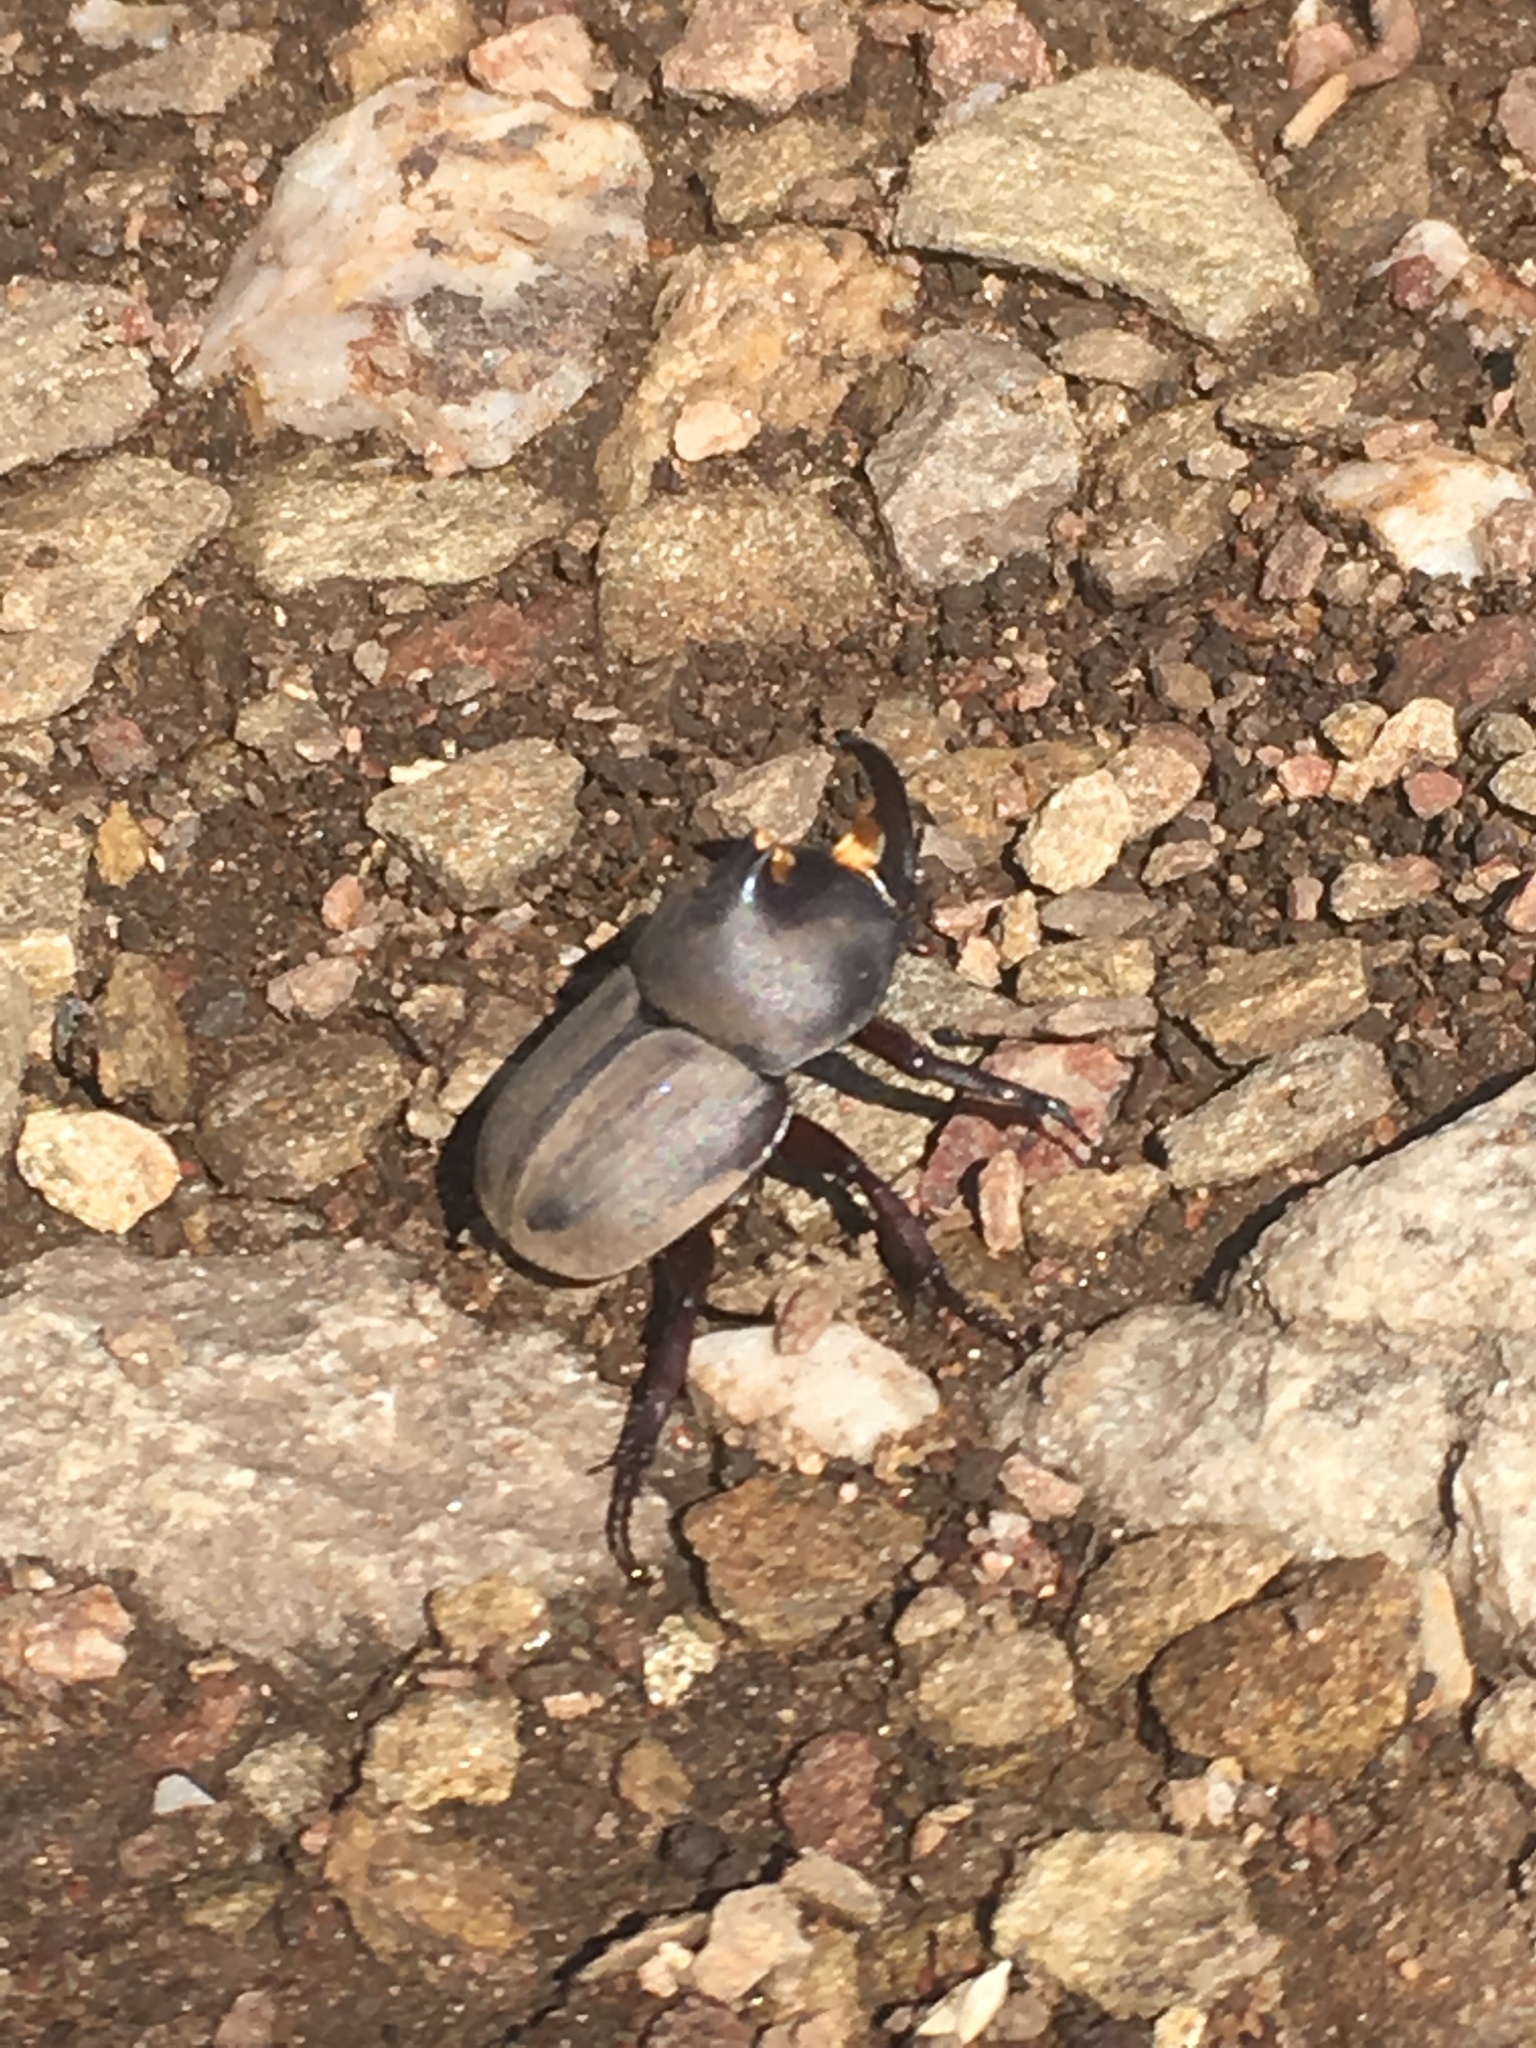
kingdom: Animalia
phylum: Arthropoda
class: Insecta
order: Coleoptera
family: Scarabaeidae
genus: Diloboderus
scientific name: Diloboderus abderus
